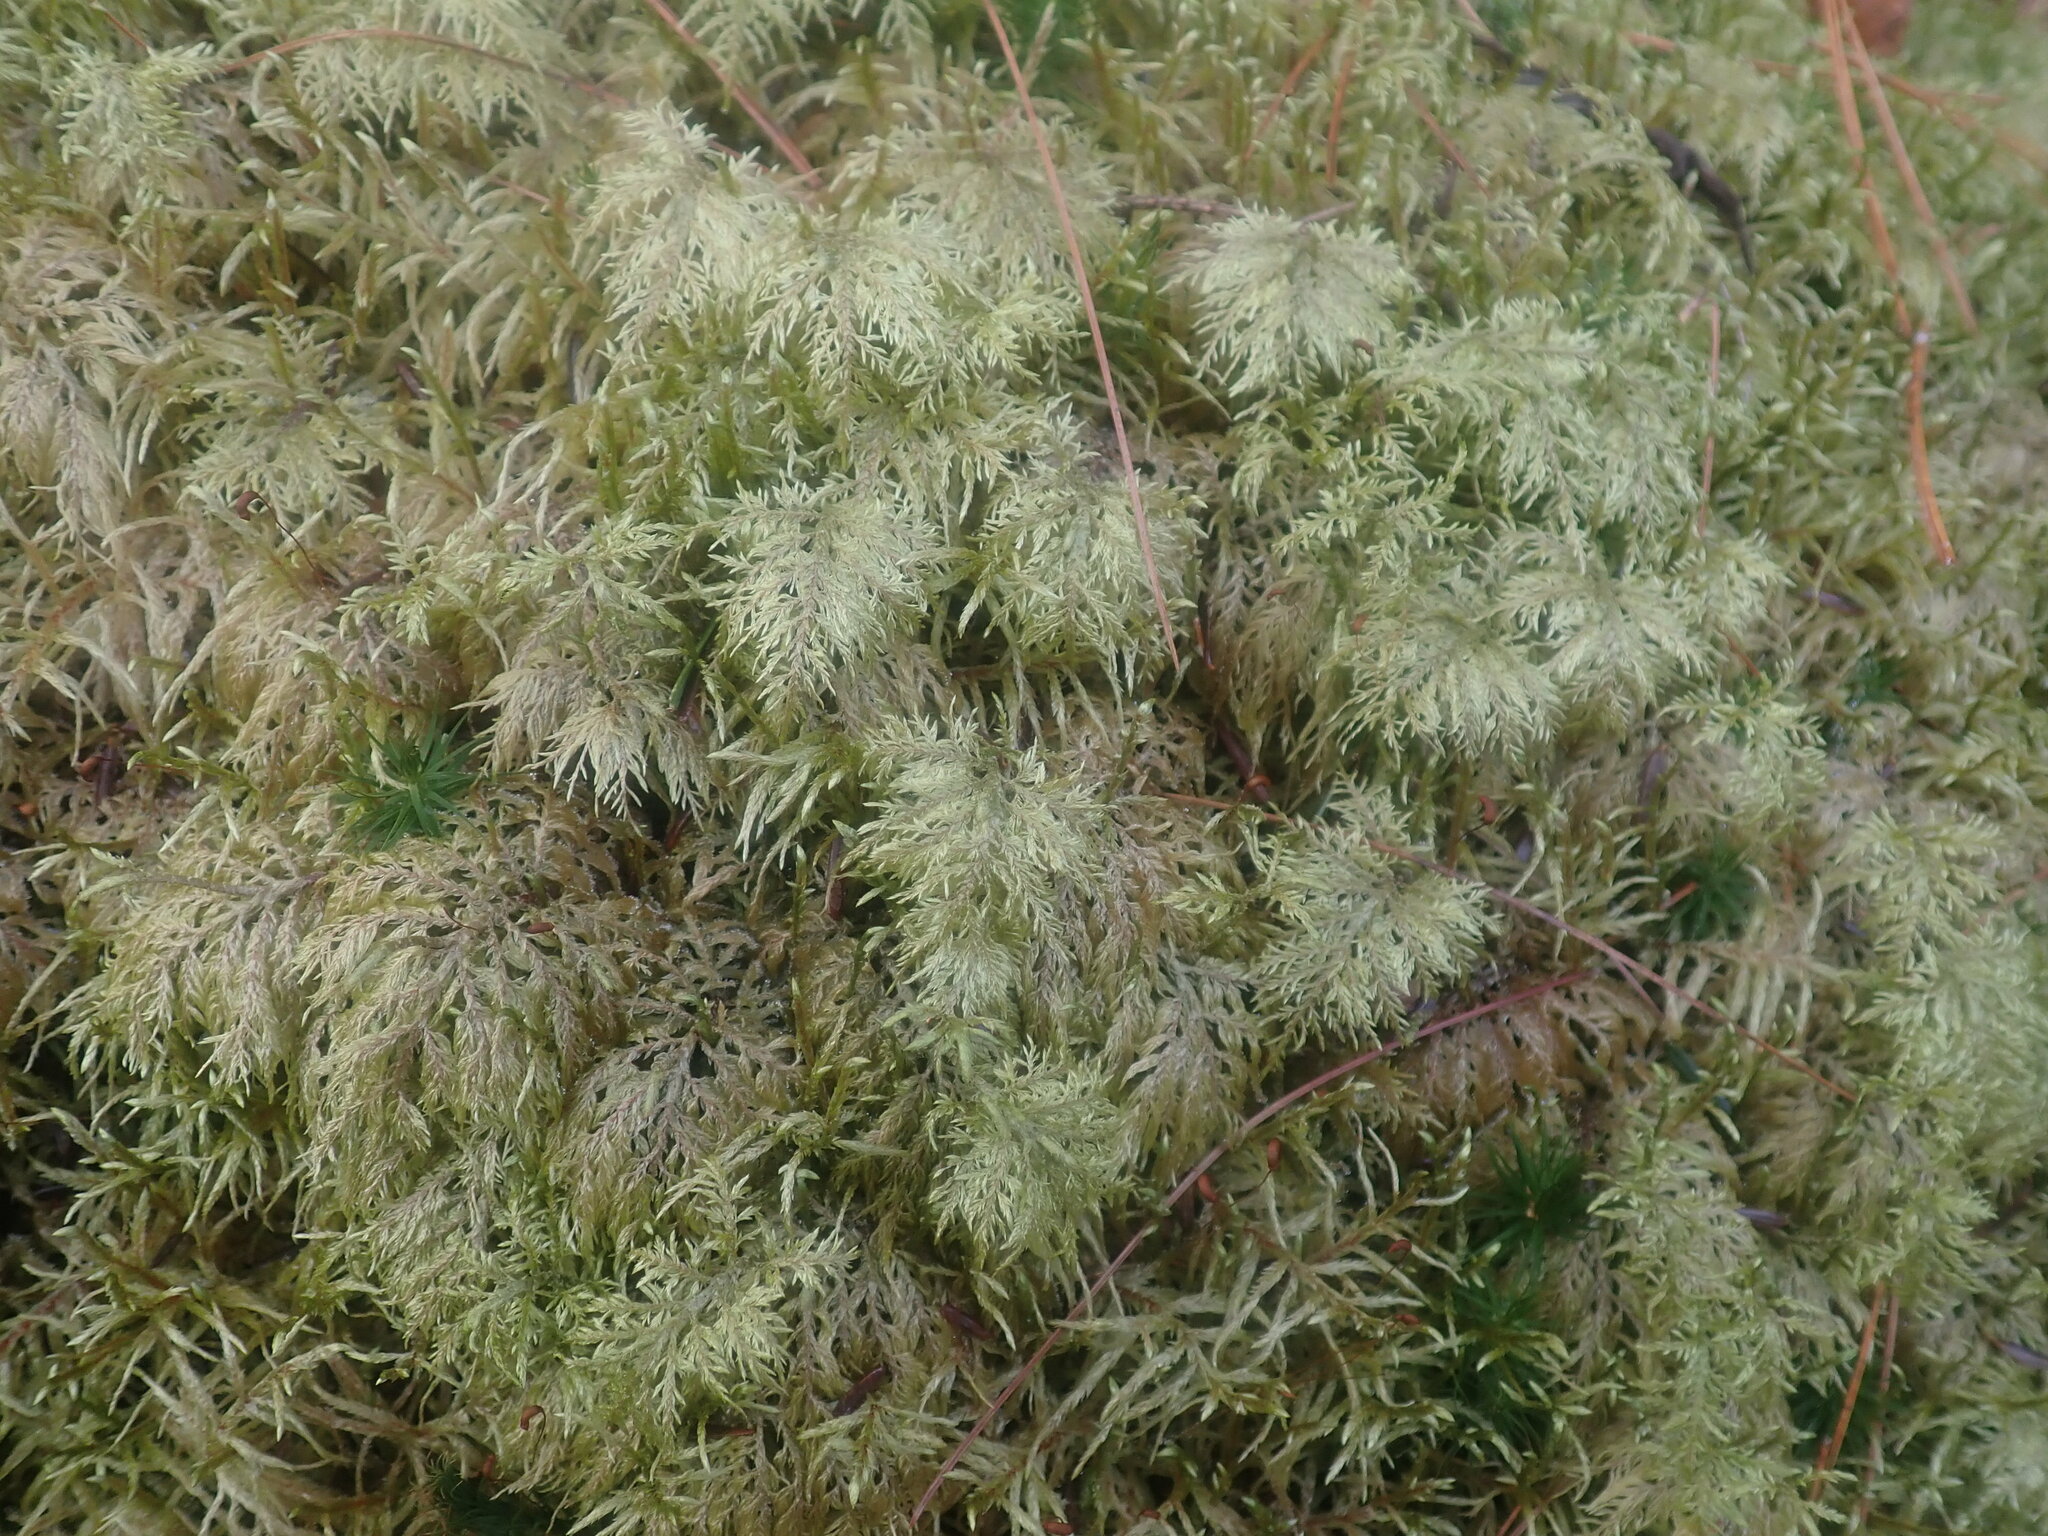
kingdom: Plantae
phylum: Bryophyta
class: Bryopsida
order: Hypnales
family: Hylocomiaceae
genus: Hylocomium
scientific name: Hylocomium splendens
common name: Stairstep moss
